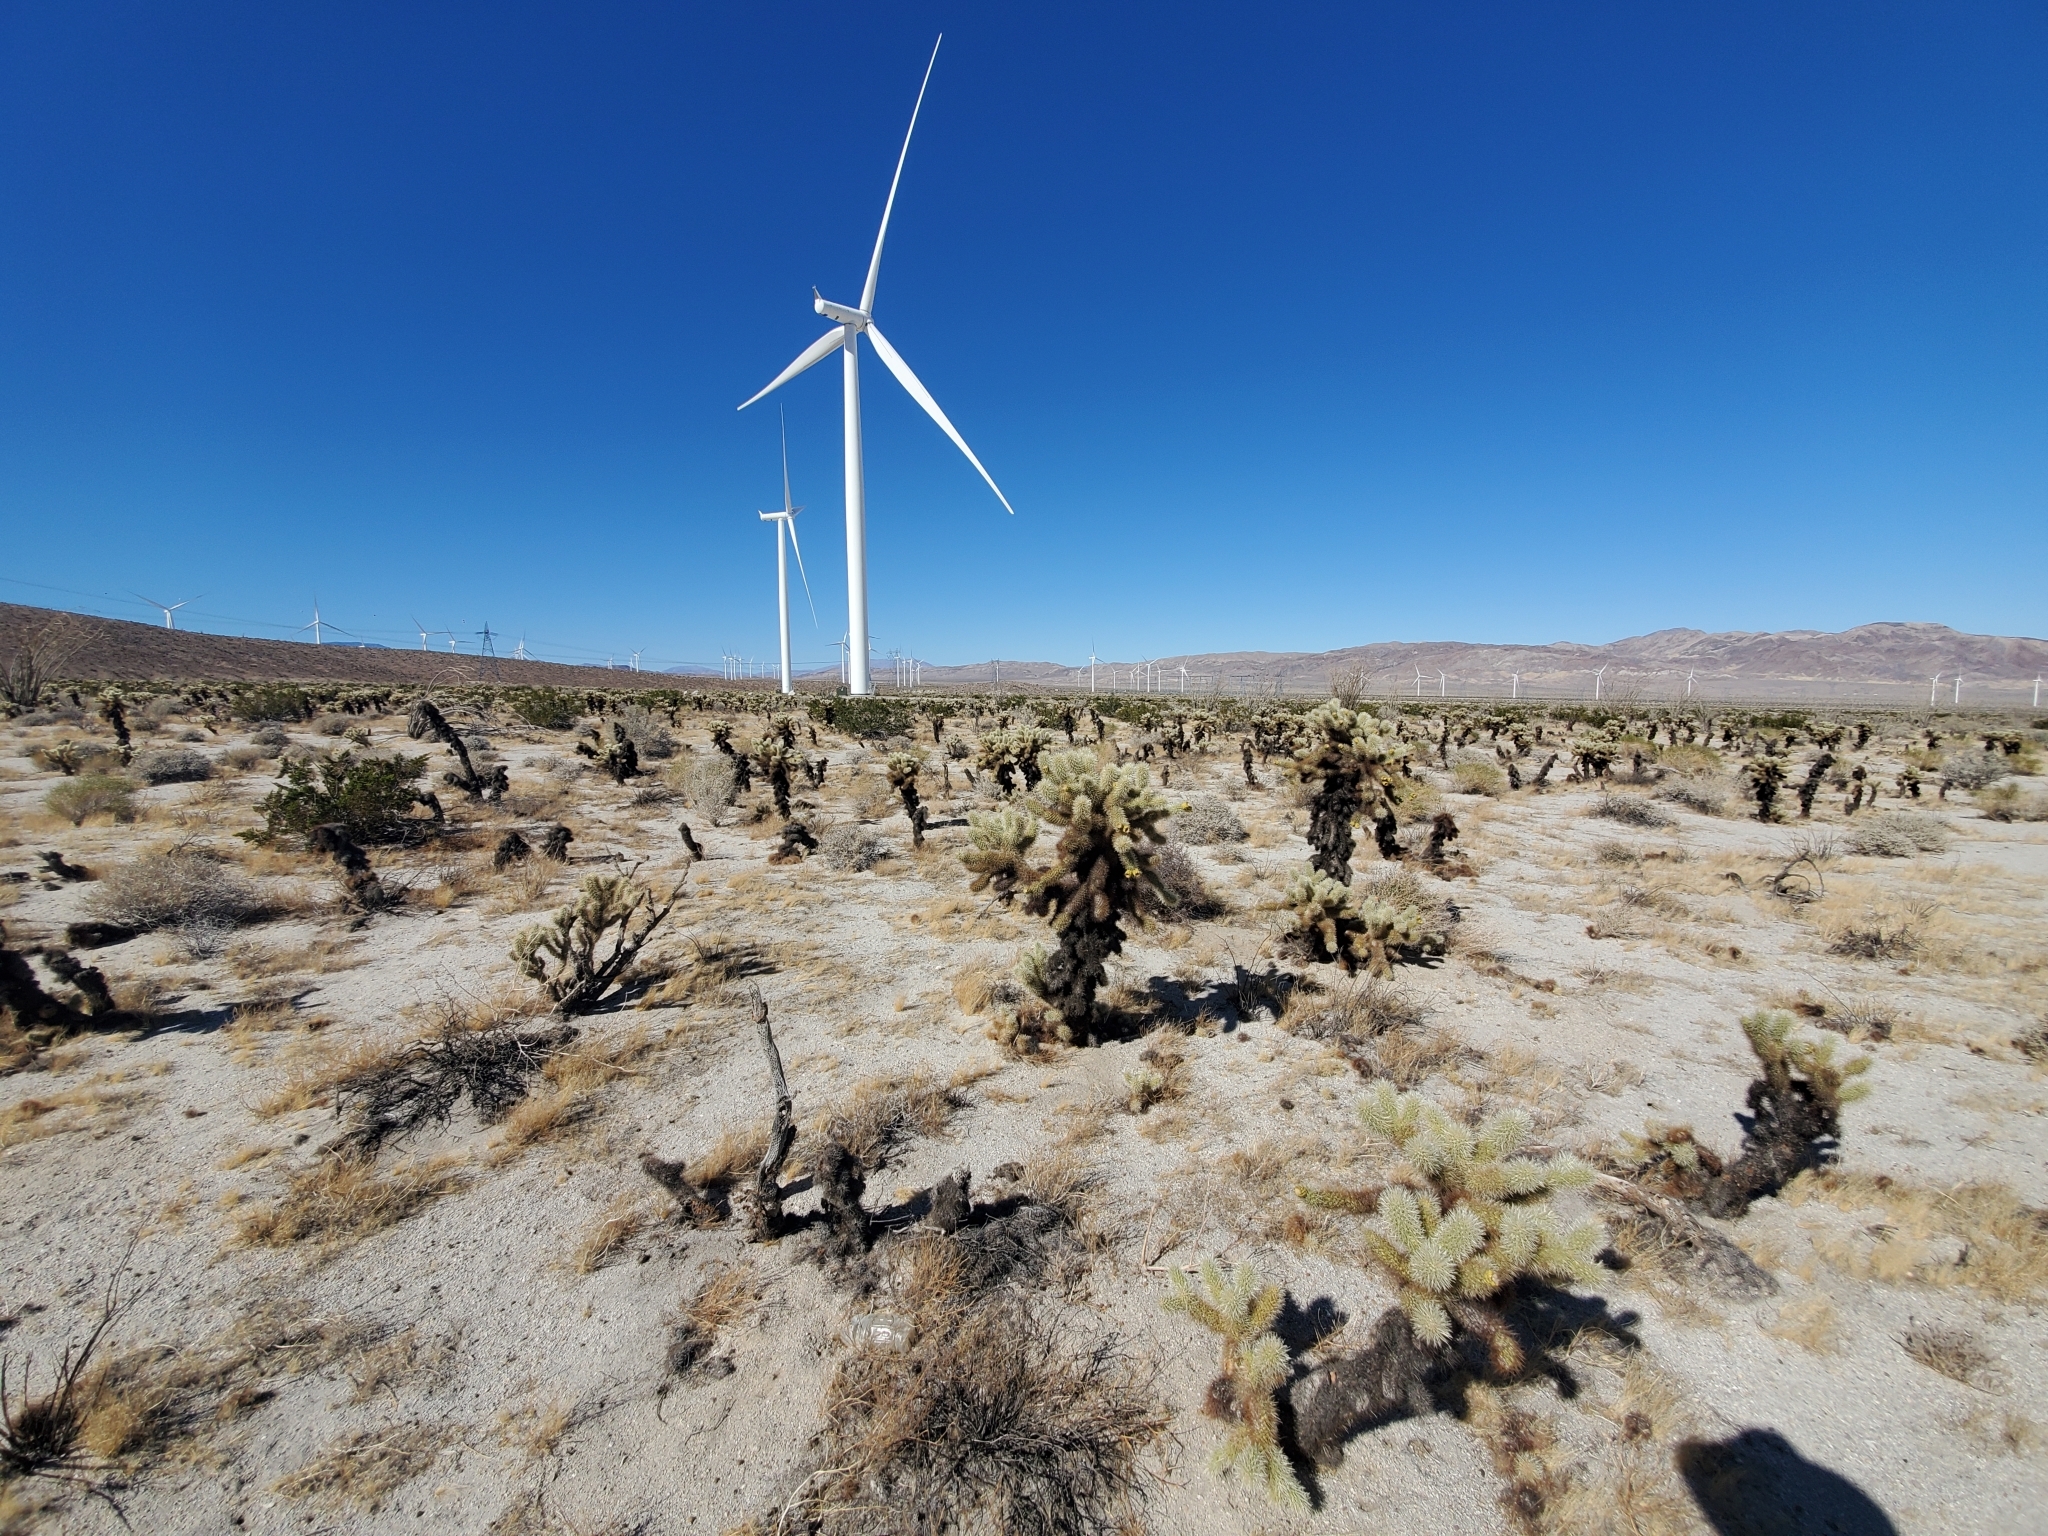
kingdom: Plantae
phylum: Tracheophyta
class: Magnoliopsida
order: Caryophyllales
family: Cactaceae
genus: Cylindropuntia
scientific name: Cylindropuntia fosbergii
